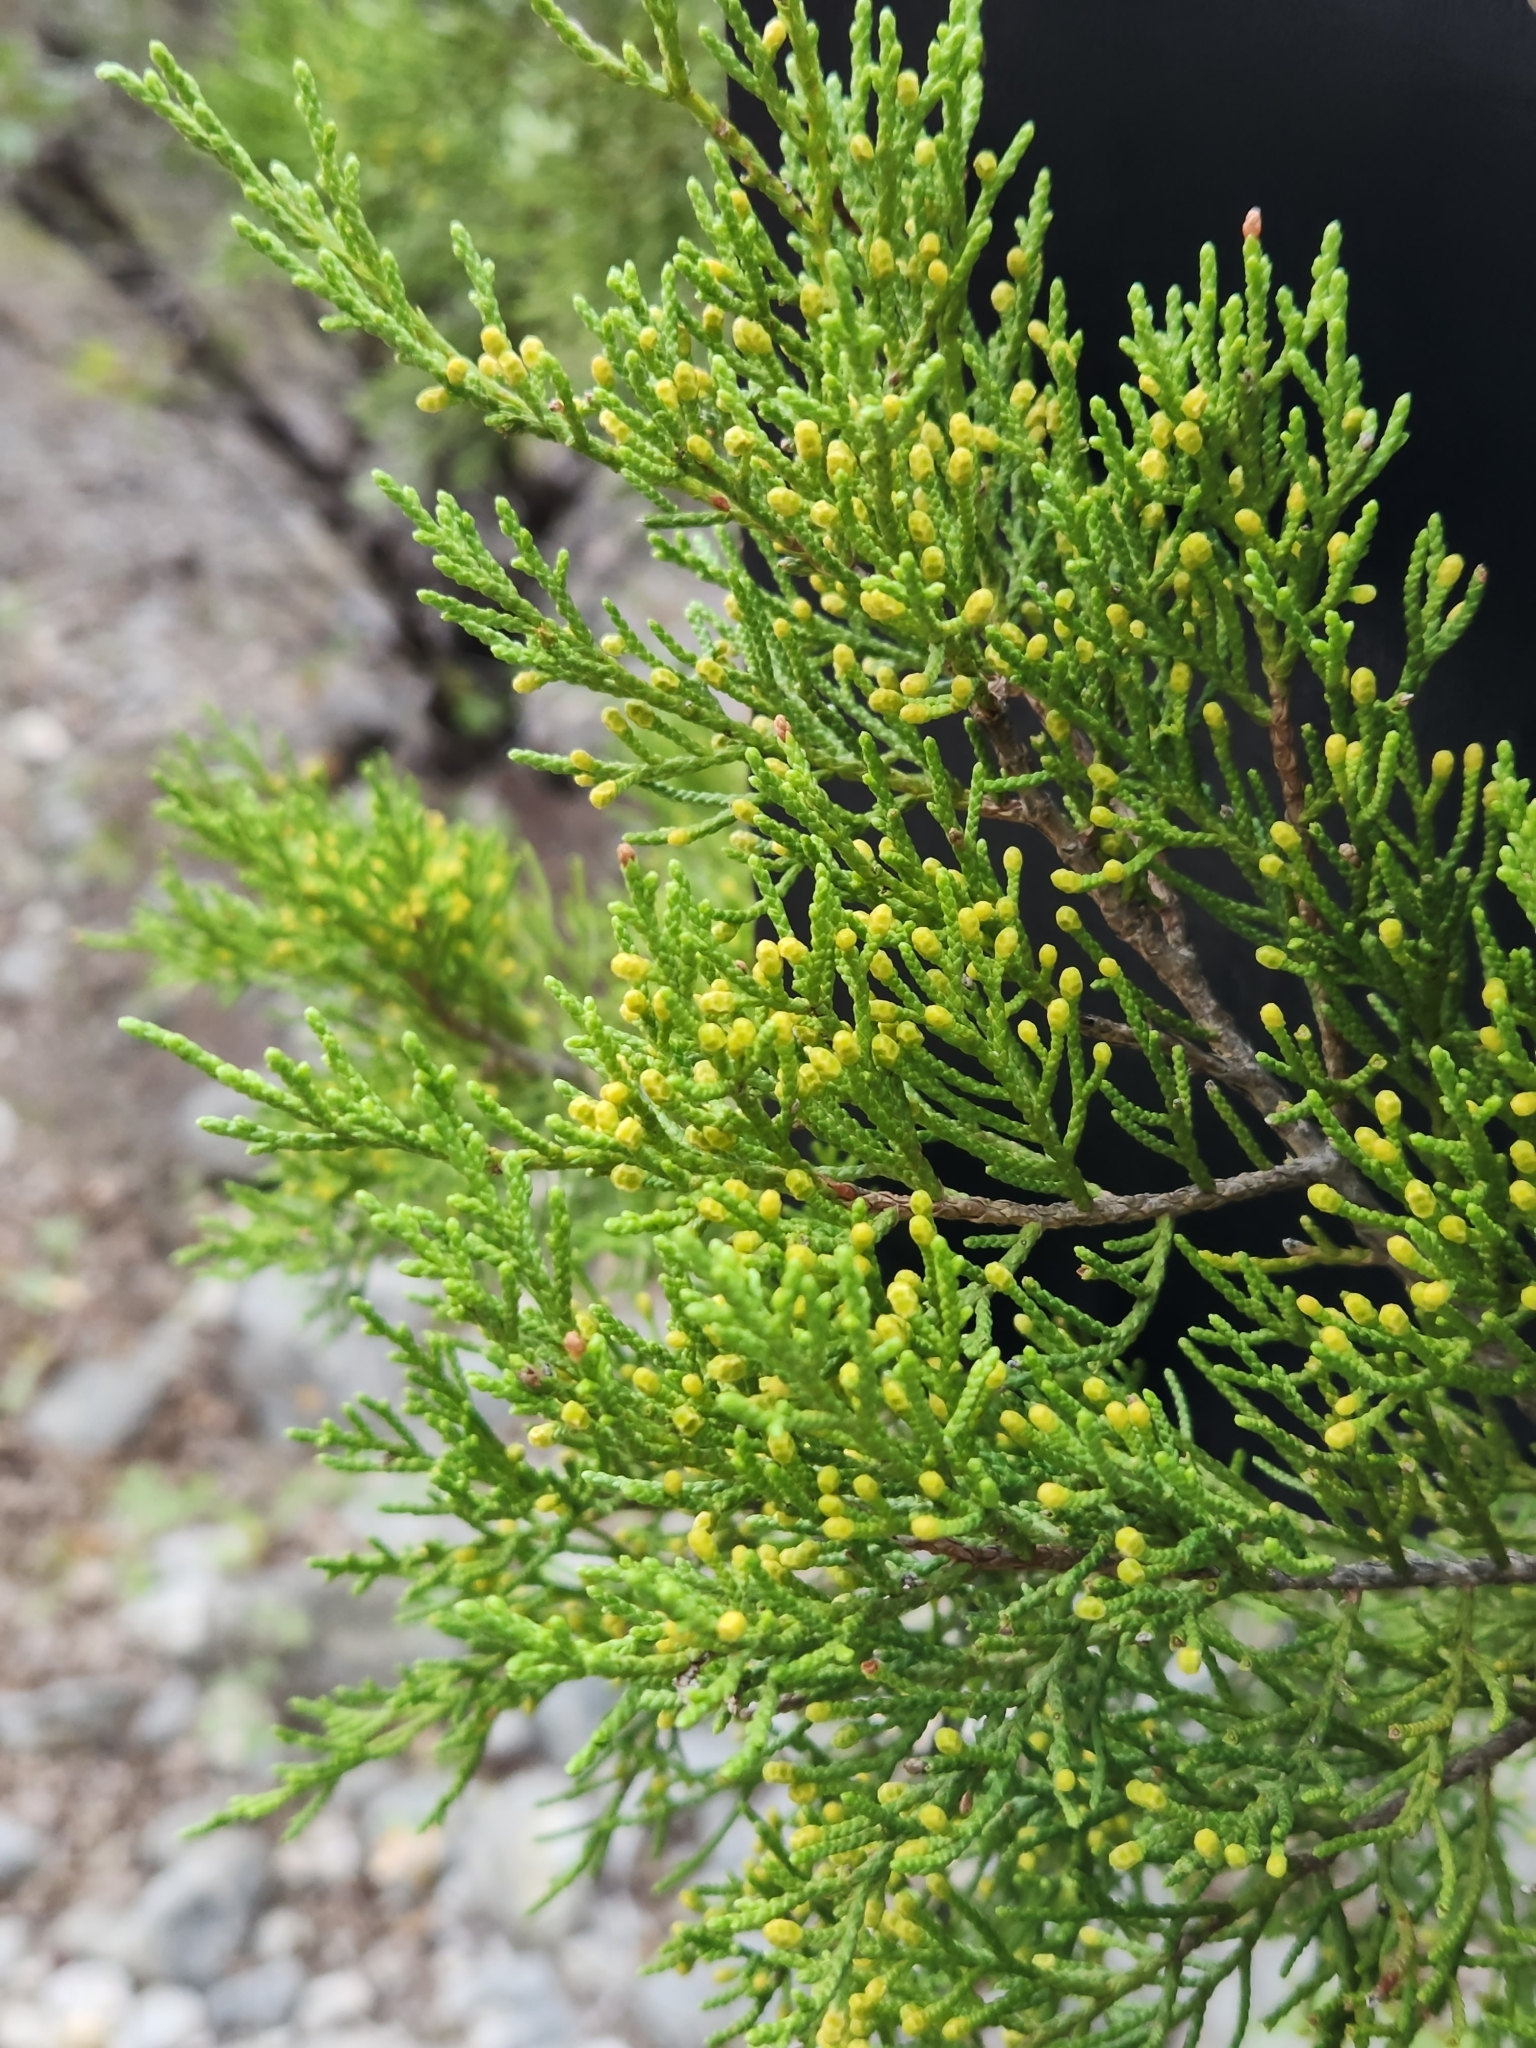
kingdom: Plantae
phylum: Tracheophyta
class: Pinopsida
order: Pinales
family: Cupressaceae
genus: Juniperus
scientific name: Juniperus ashei
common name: Mexican juniper
